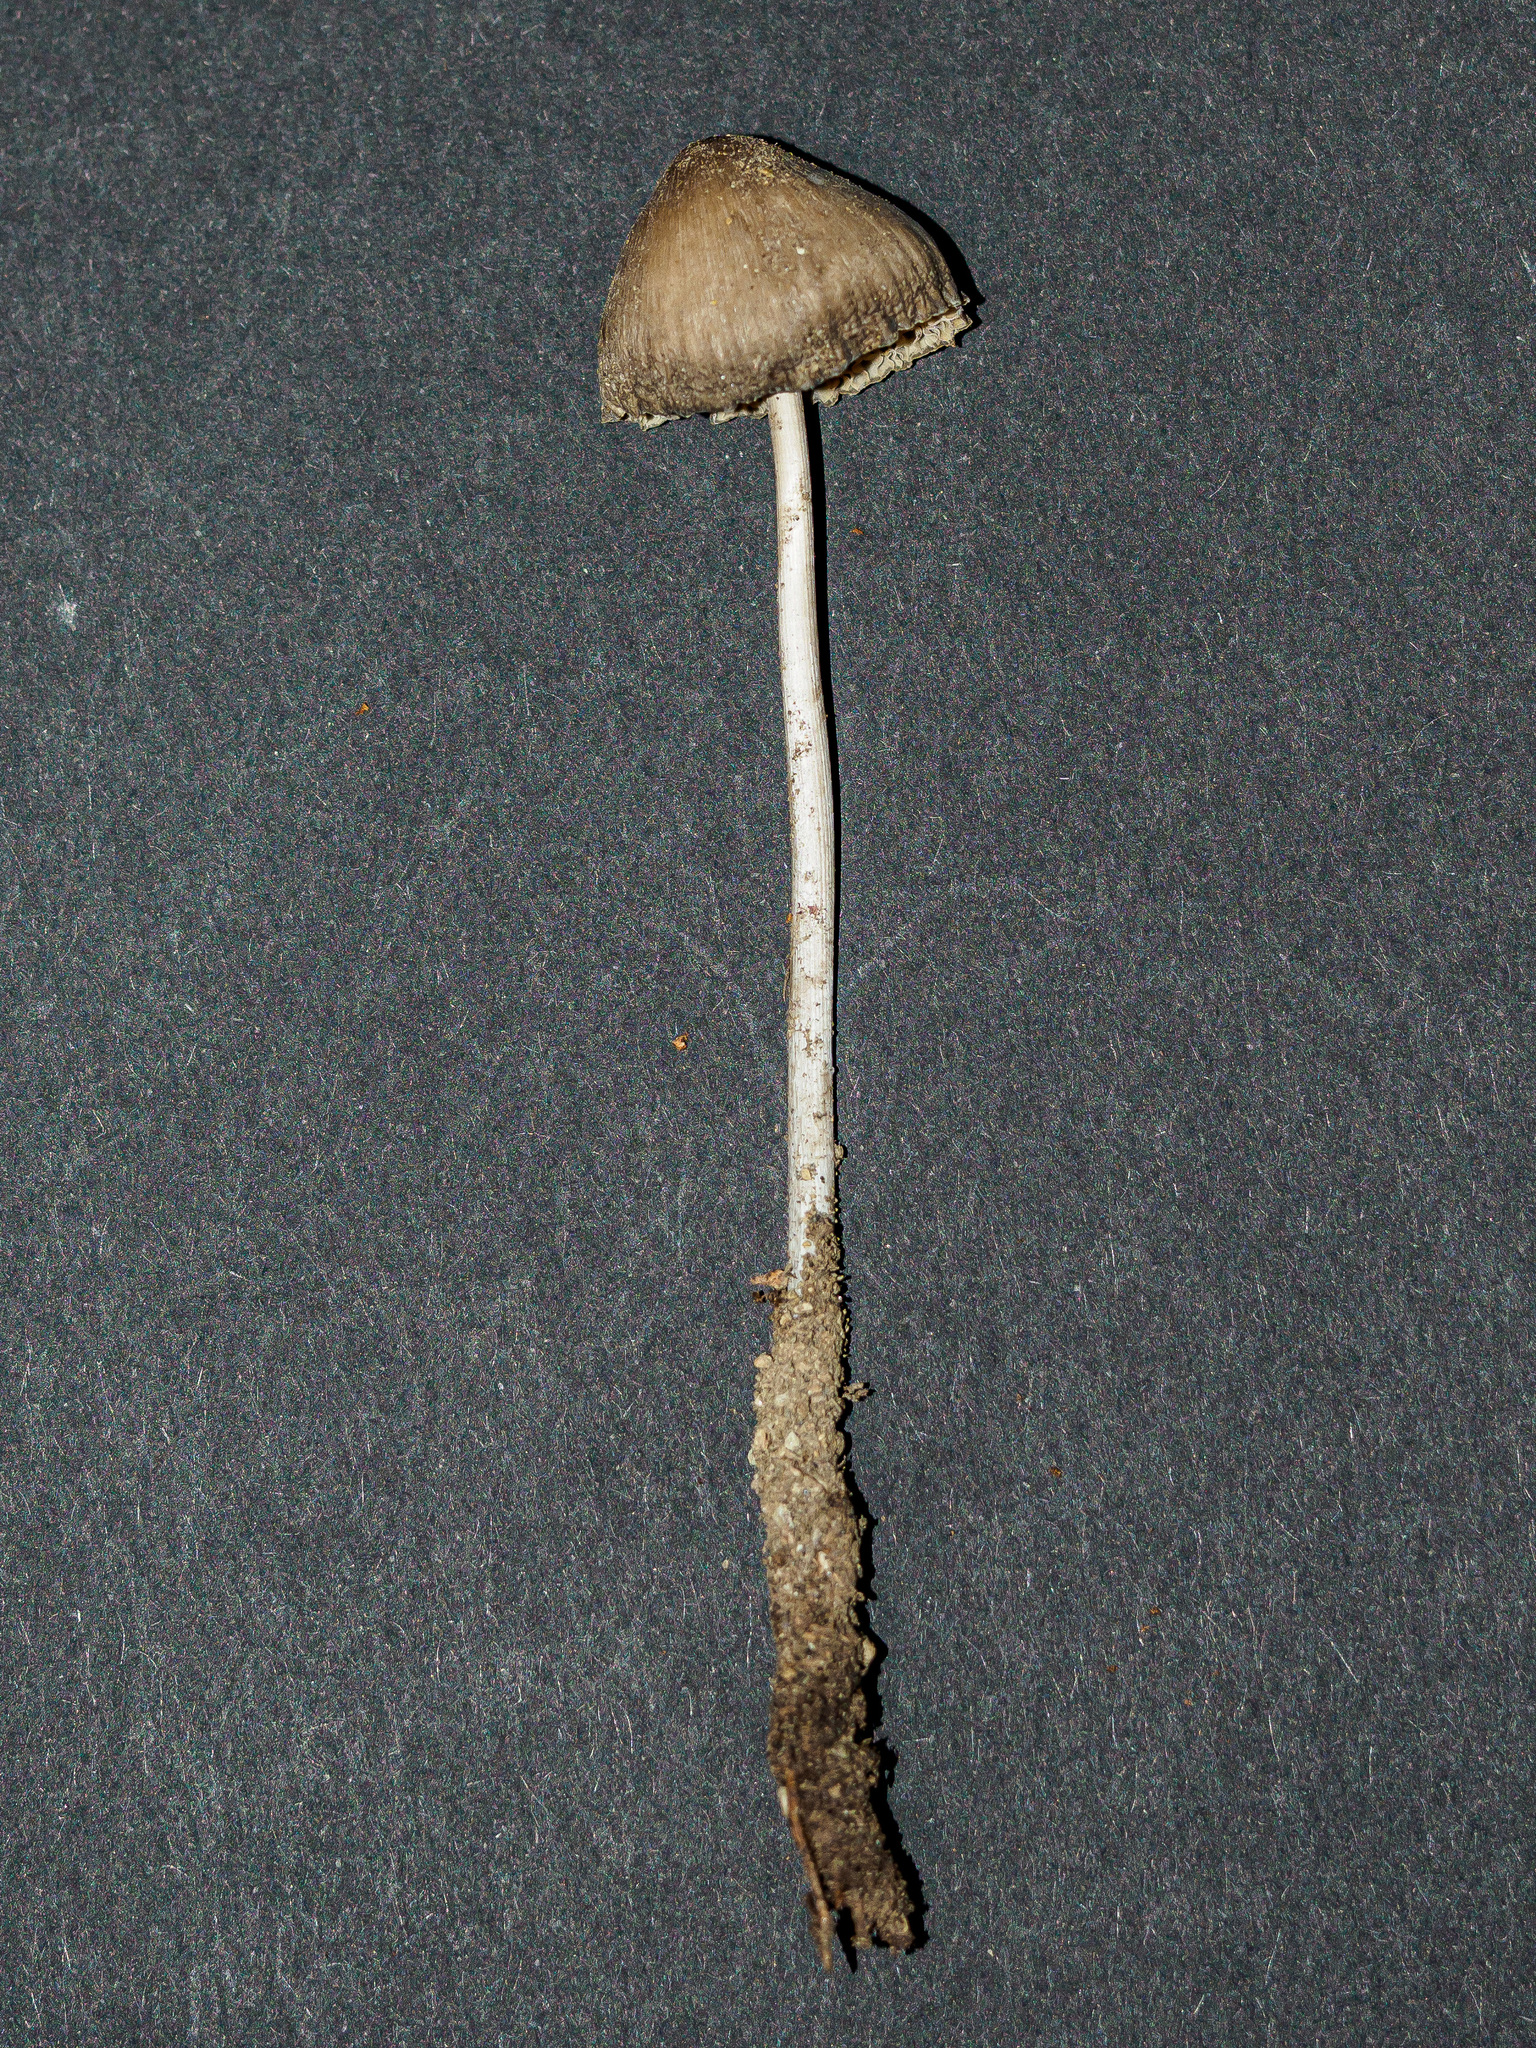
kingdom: Fungi
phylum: Basidiomycota
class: Agaricomycetes
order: Agaricales
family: Mycenaceae
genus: Mycena
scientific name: Mycena polygramma
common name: Grooved bonnet
